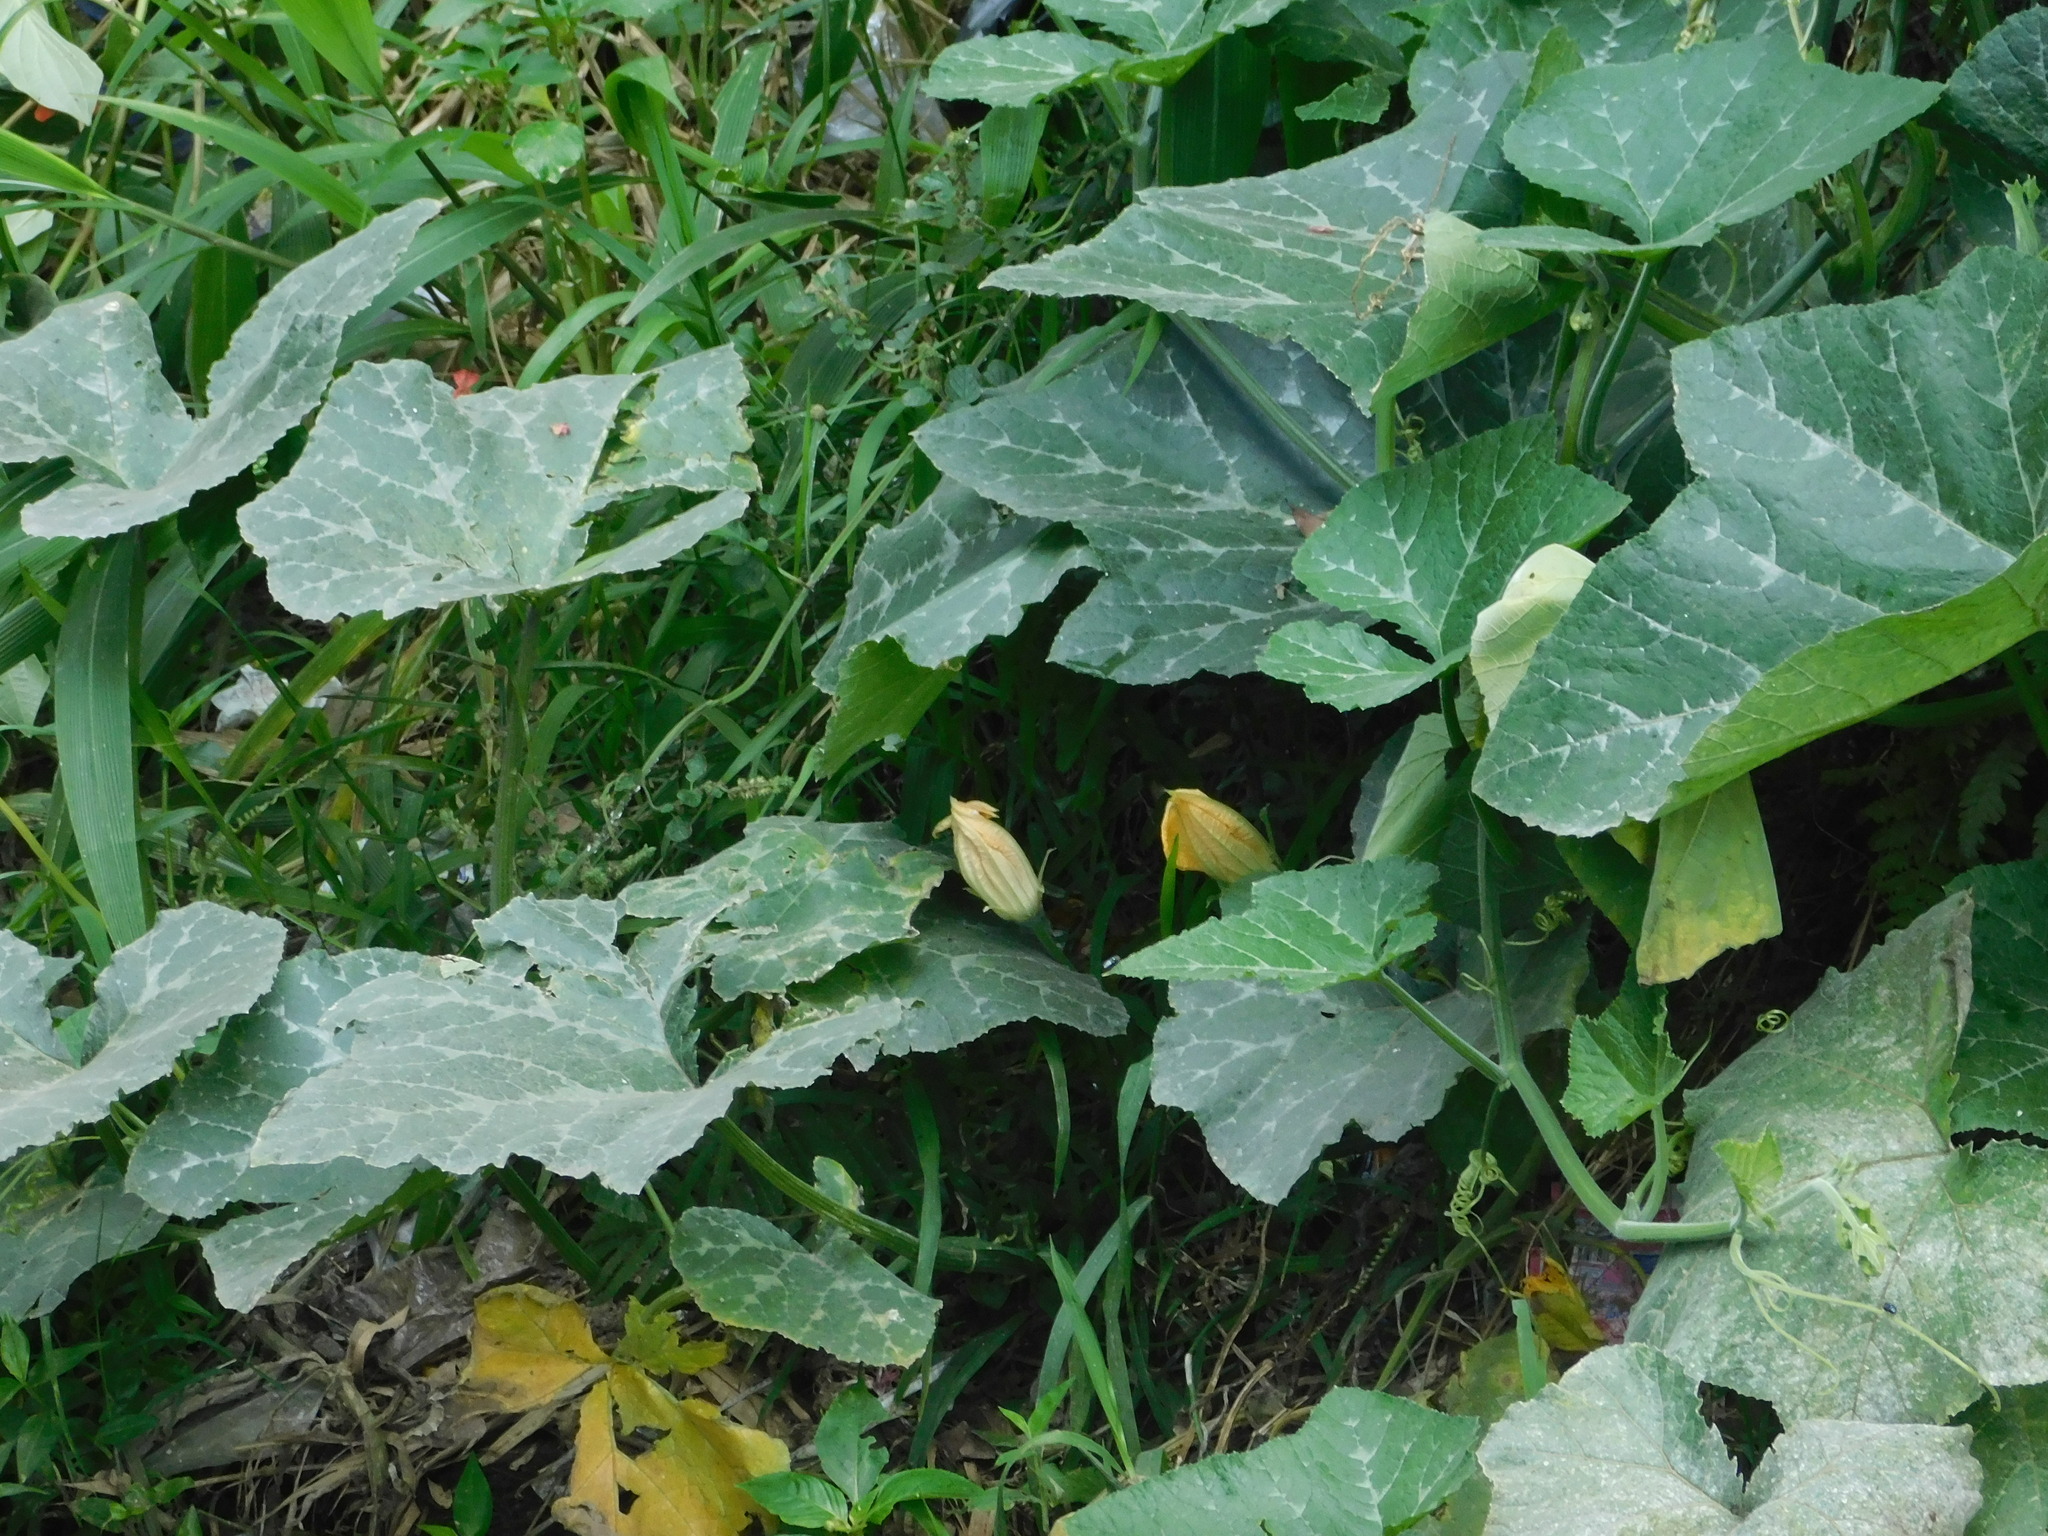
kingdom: Plantae
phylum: Tracheophyta
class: Magnoliopsida
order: Cucurbitales
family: Cucurbitaceae
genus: Cucurbita
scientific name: Cucurbita moschata
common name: Squash / pumpkin
